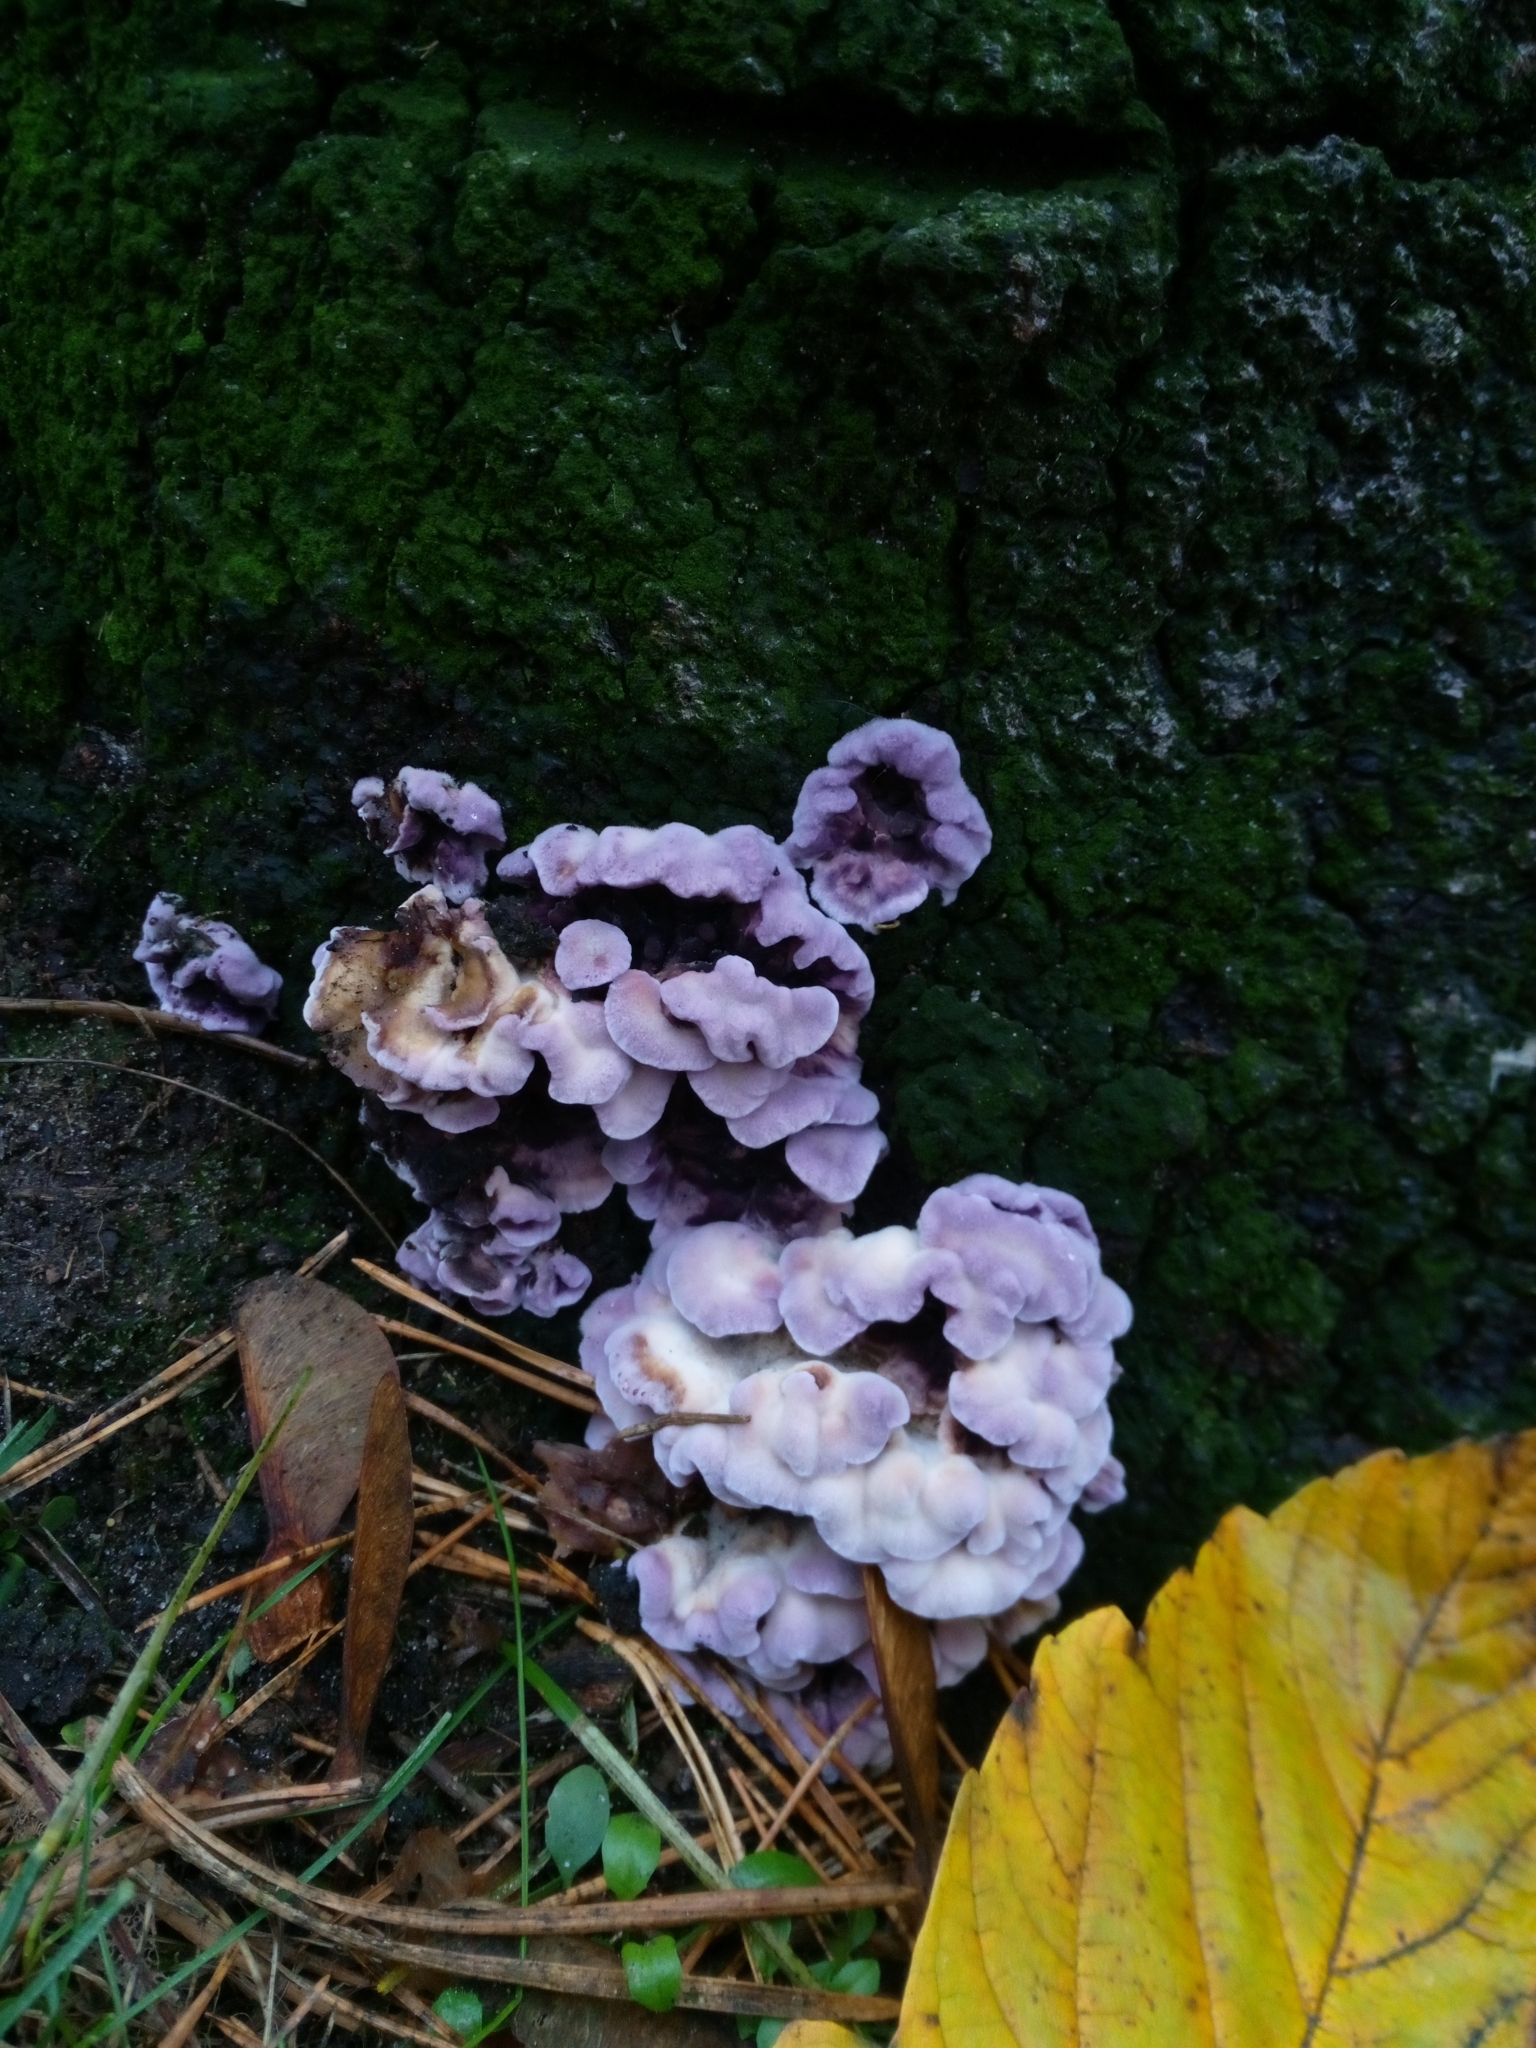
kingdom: Fungi
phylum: Basidiomycota
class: Agaricomycetes
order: Agaricales
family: Cyphellaceae
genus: Chondrostereum
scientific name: Chondrostereum purpureum
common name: Silver leaf disease
